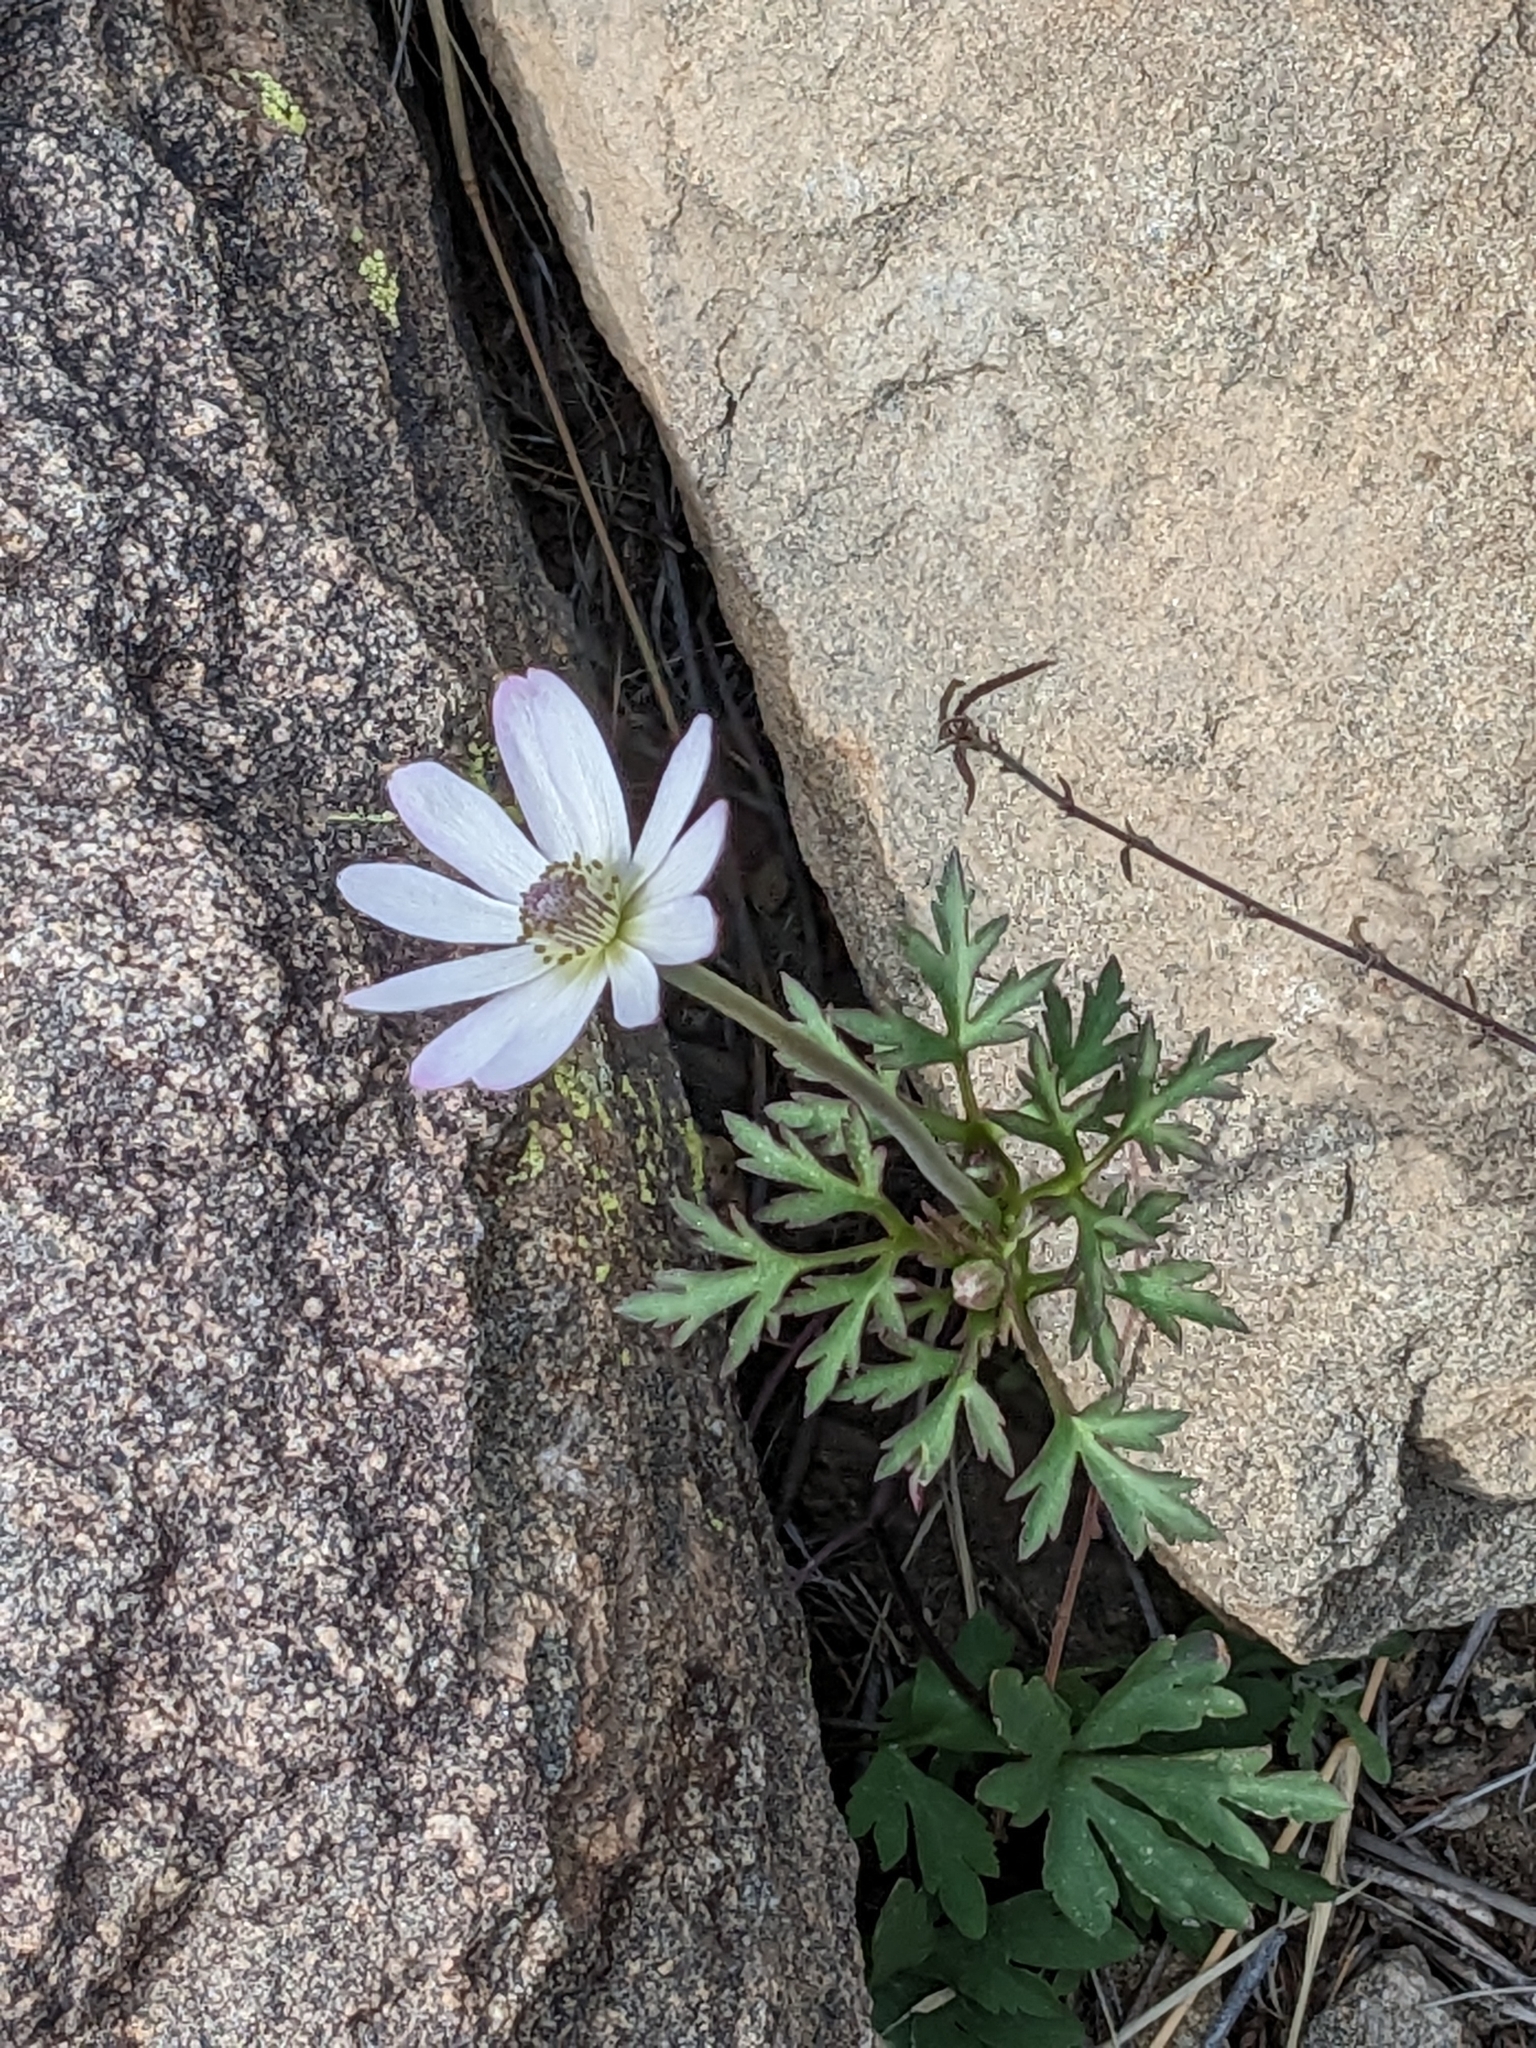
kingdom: Plantae
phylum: Tracheophyta
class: Magnoliopsida
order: Ranunculales
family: Ranunculaceae
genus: Anemone
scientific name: Anemone tuberosa
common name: Desert anemone
